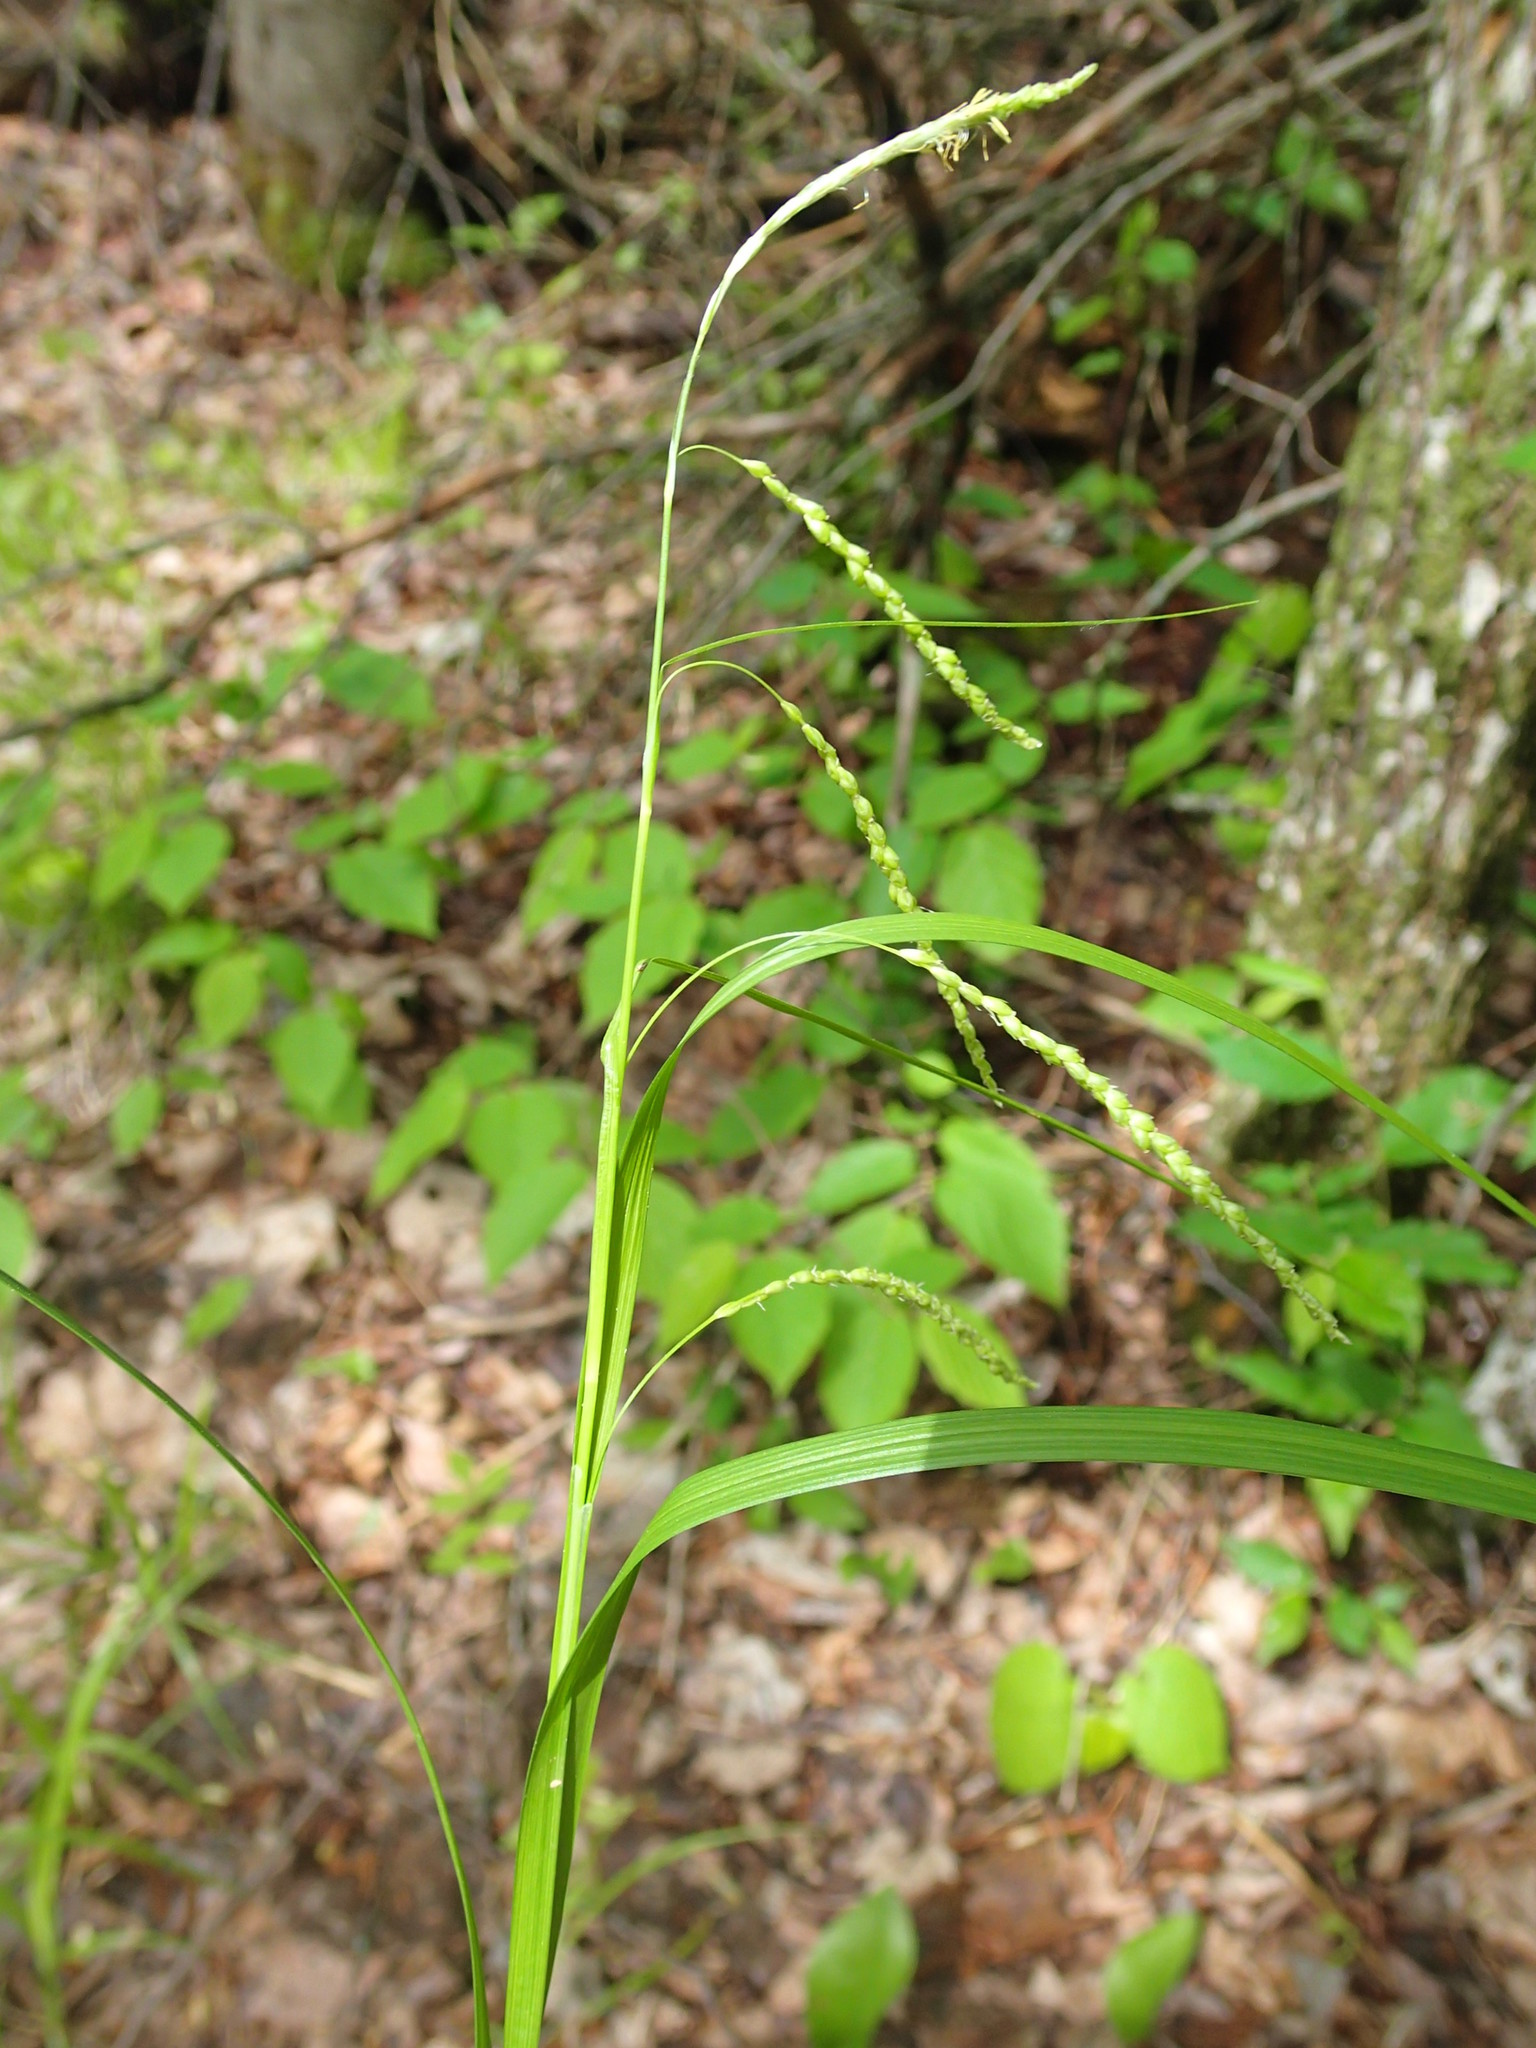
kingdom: Plantae
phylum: Tracheophyta
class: Liliopsida
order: Poales
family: Cyperaceae
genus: Carex
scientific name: Carex gracillima
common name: Graceful sedge
